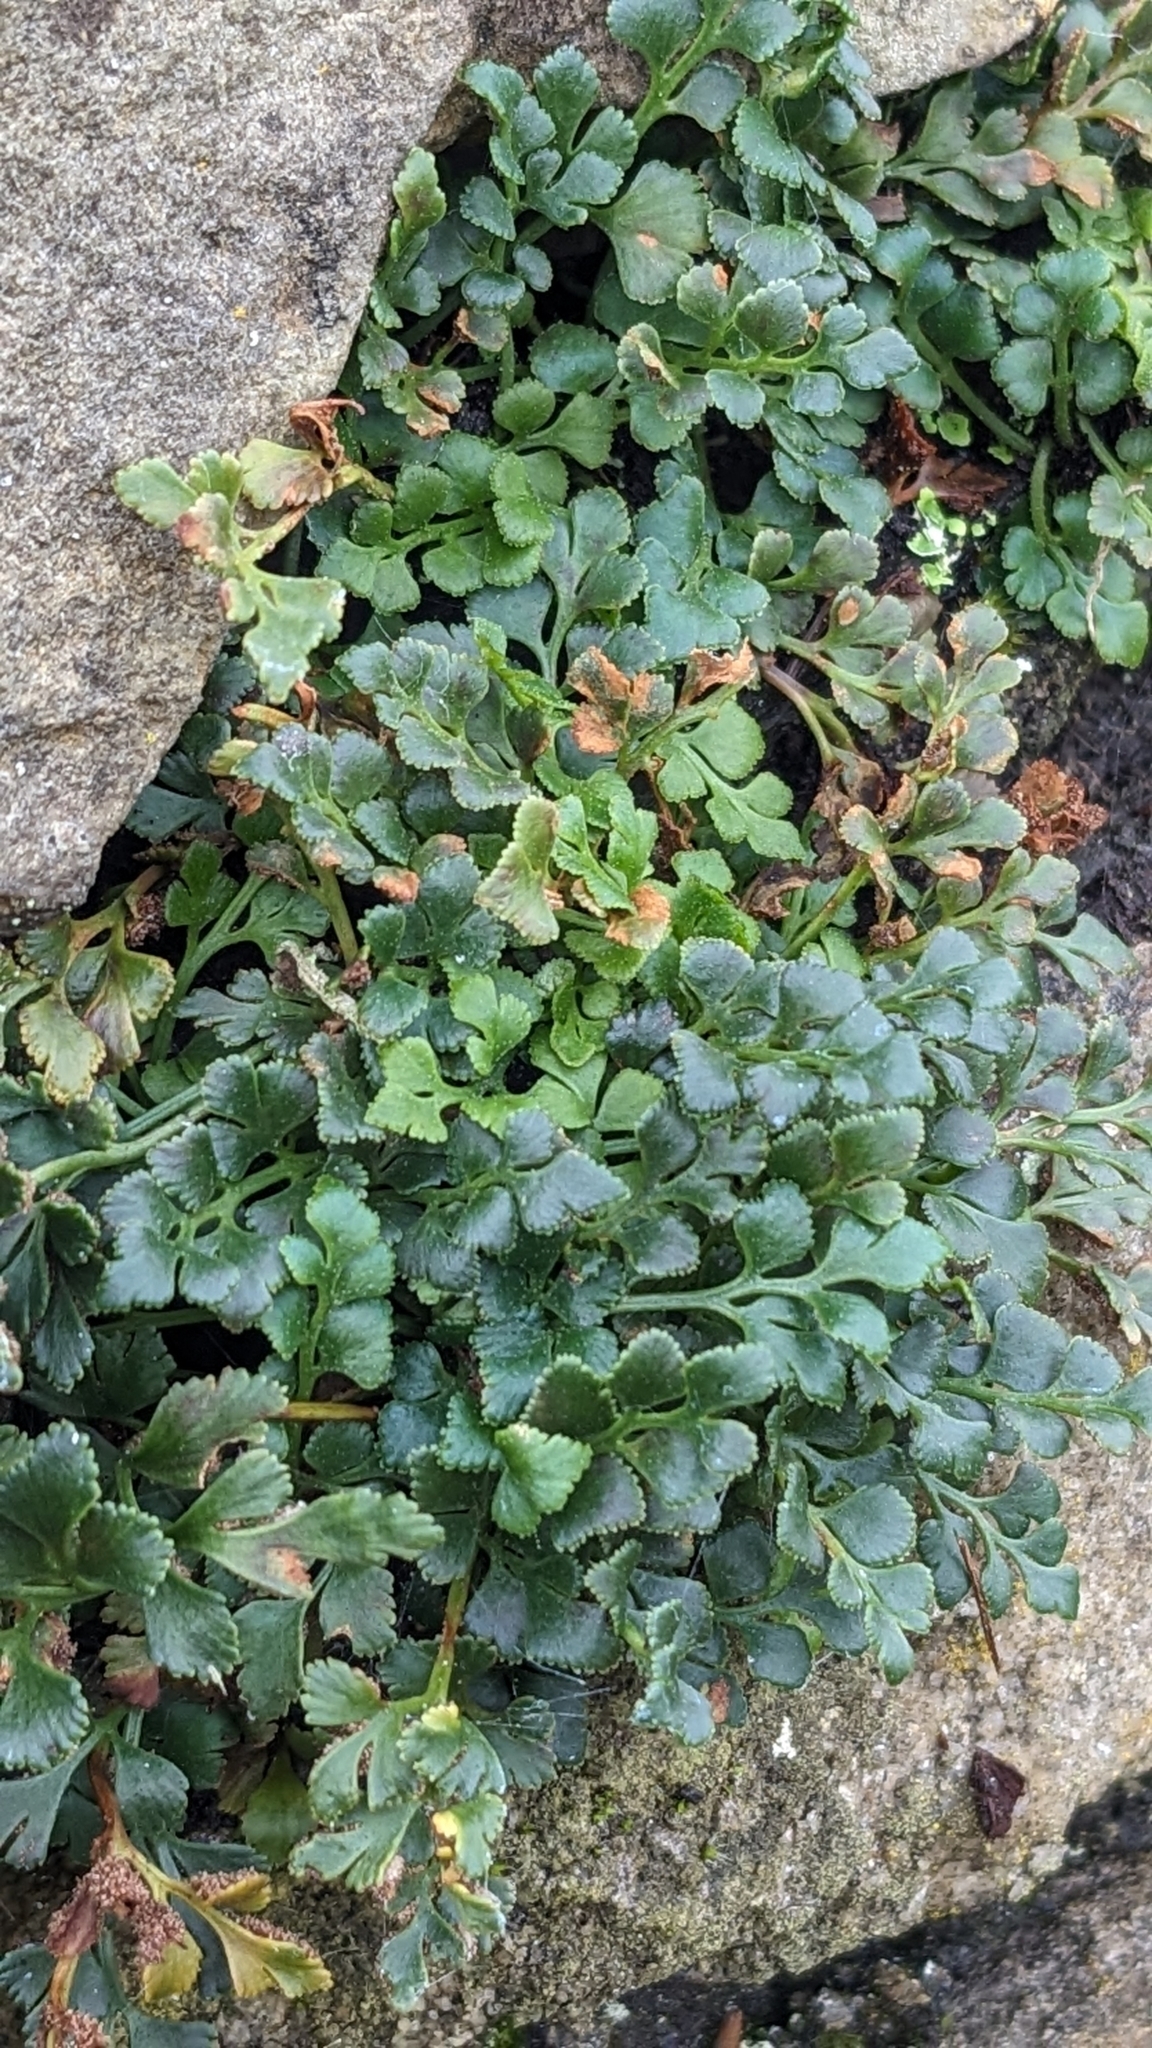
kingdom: Plantae
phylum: Tracheophyta
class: Polypodiopsida
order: Polypodiales
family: Aspleniaceae
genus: Asplenium
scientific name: Asplenium ruta-muraria
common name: Wall-rue
